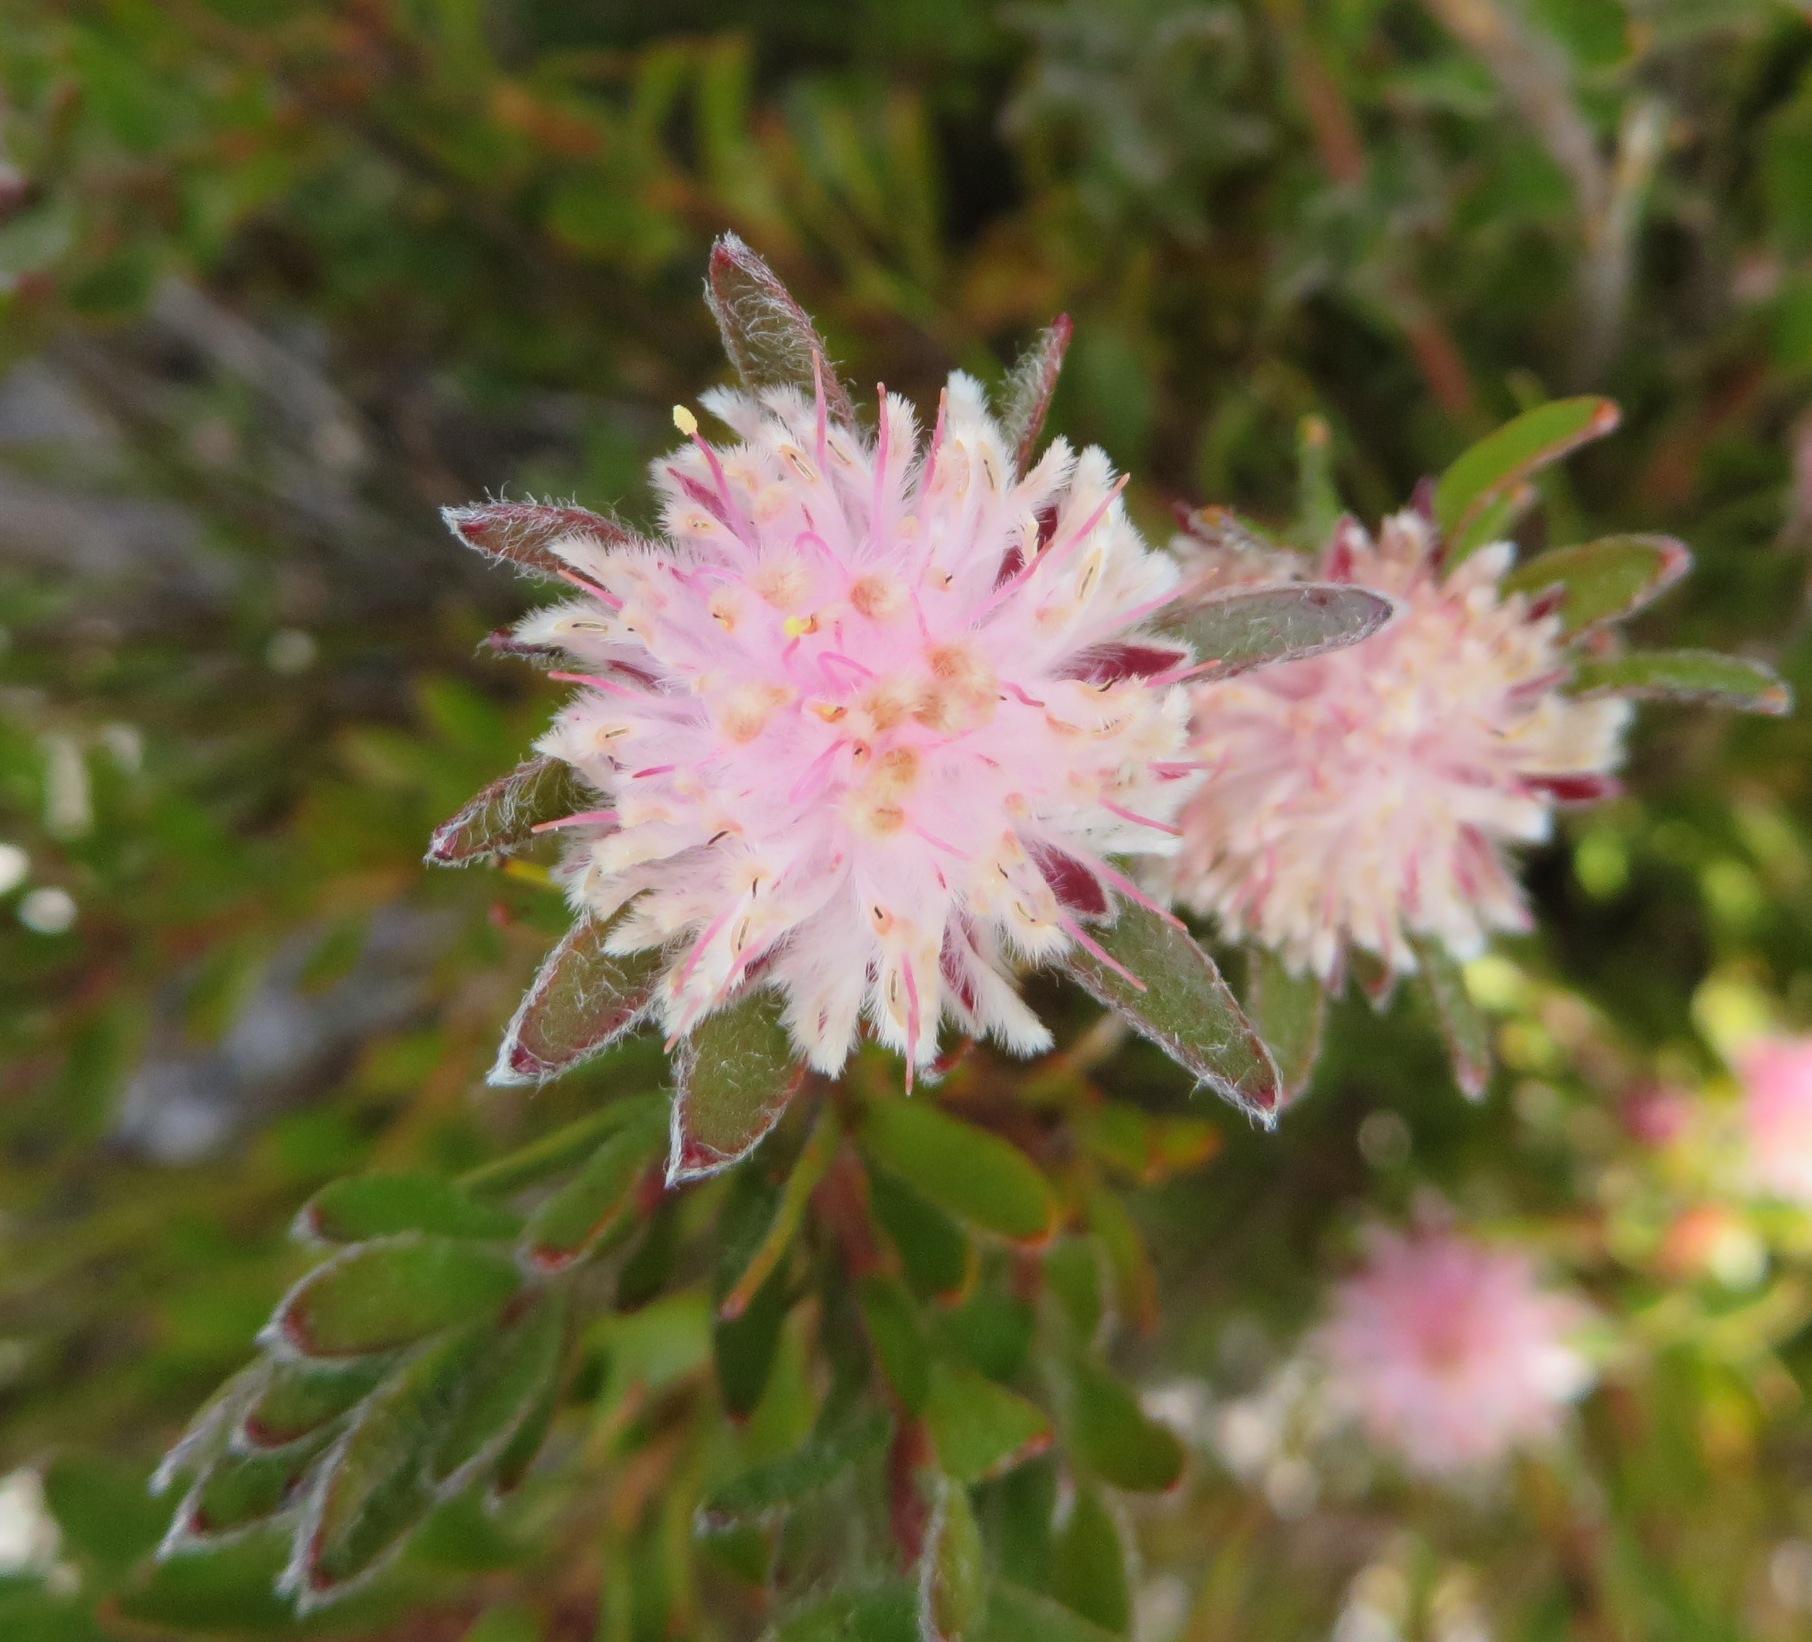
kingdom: Plantae
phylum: Tracheophyta
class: Magnoliopsida
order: Proteales
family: Proteaceae
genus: Diastella
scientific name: Diastella divaricata
